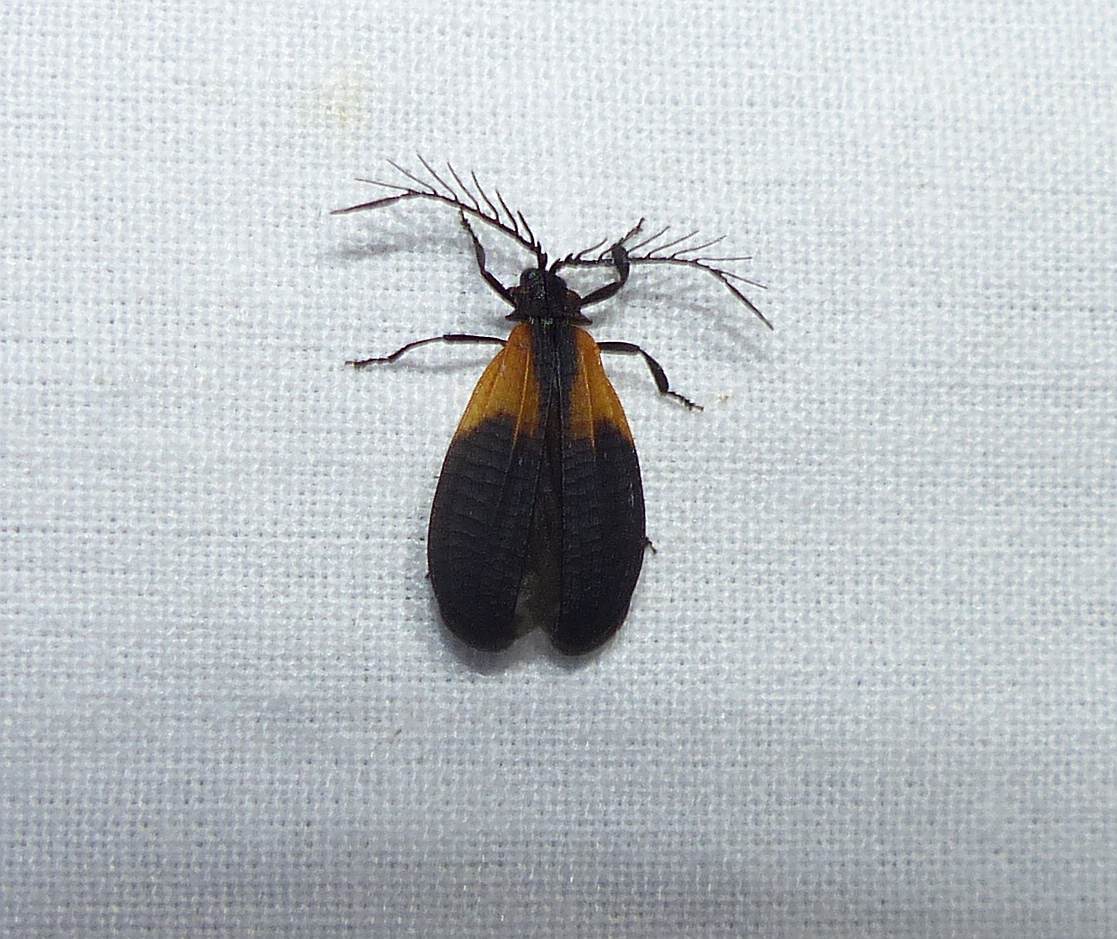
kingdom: Animalia
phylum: Arthropoda
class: Insecta
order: Coleoptera
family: Lycidae
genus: Caenia
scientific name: Caenia dimidiata
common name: Terminal net-winged beetle
